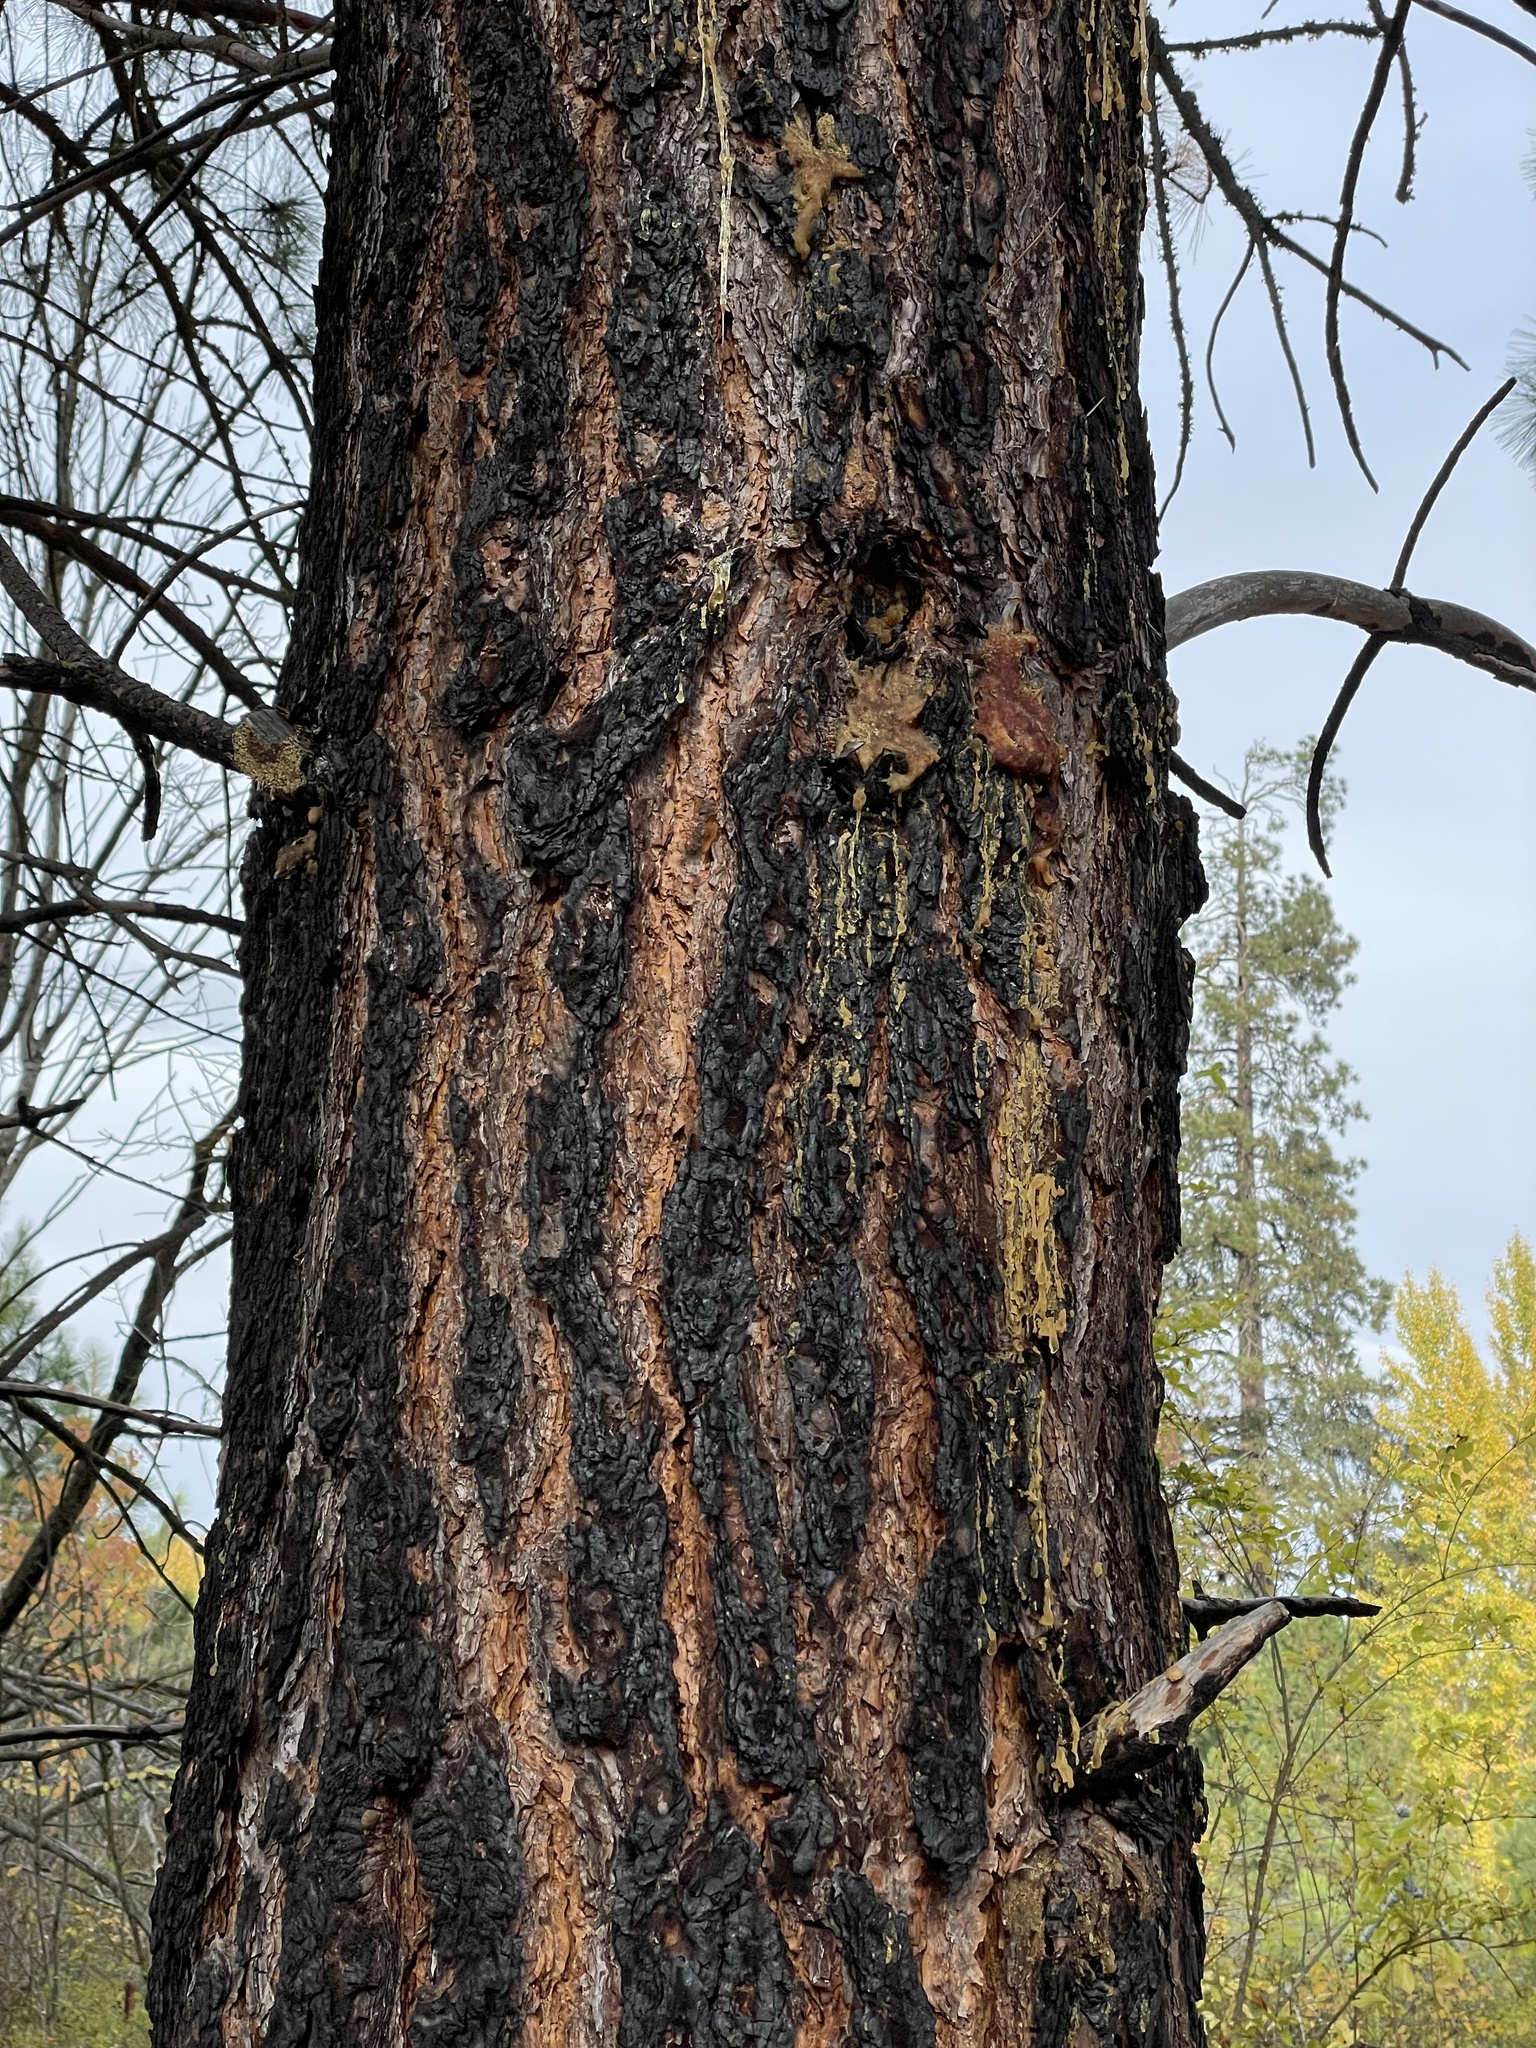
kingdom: Plantae
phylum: Tracheophyta
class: Pinopsida
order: Pinales
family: Pinaceae
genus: Pinus
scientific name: Pinus ponderosa
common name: Western yellow-pine
